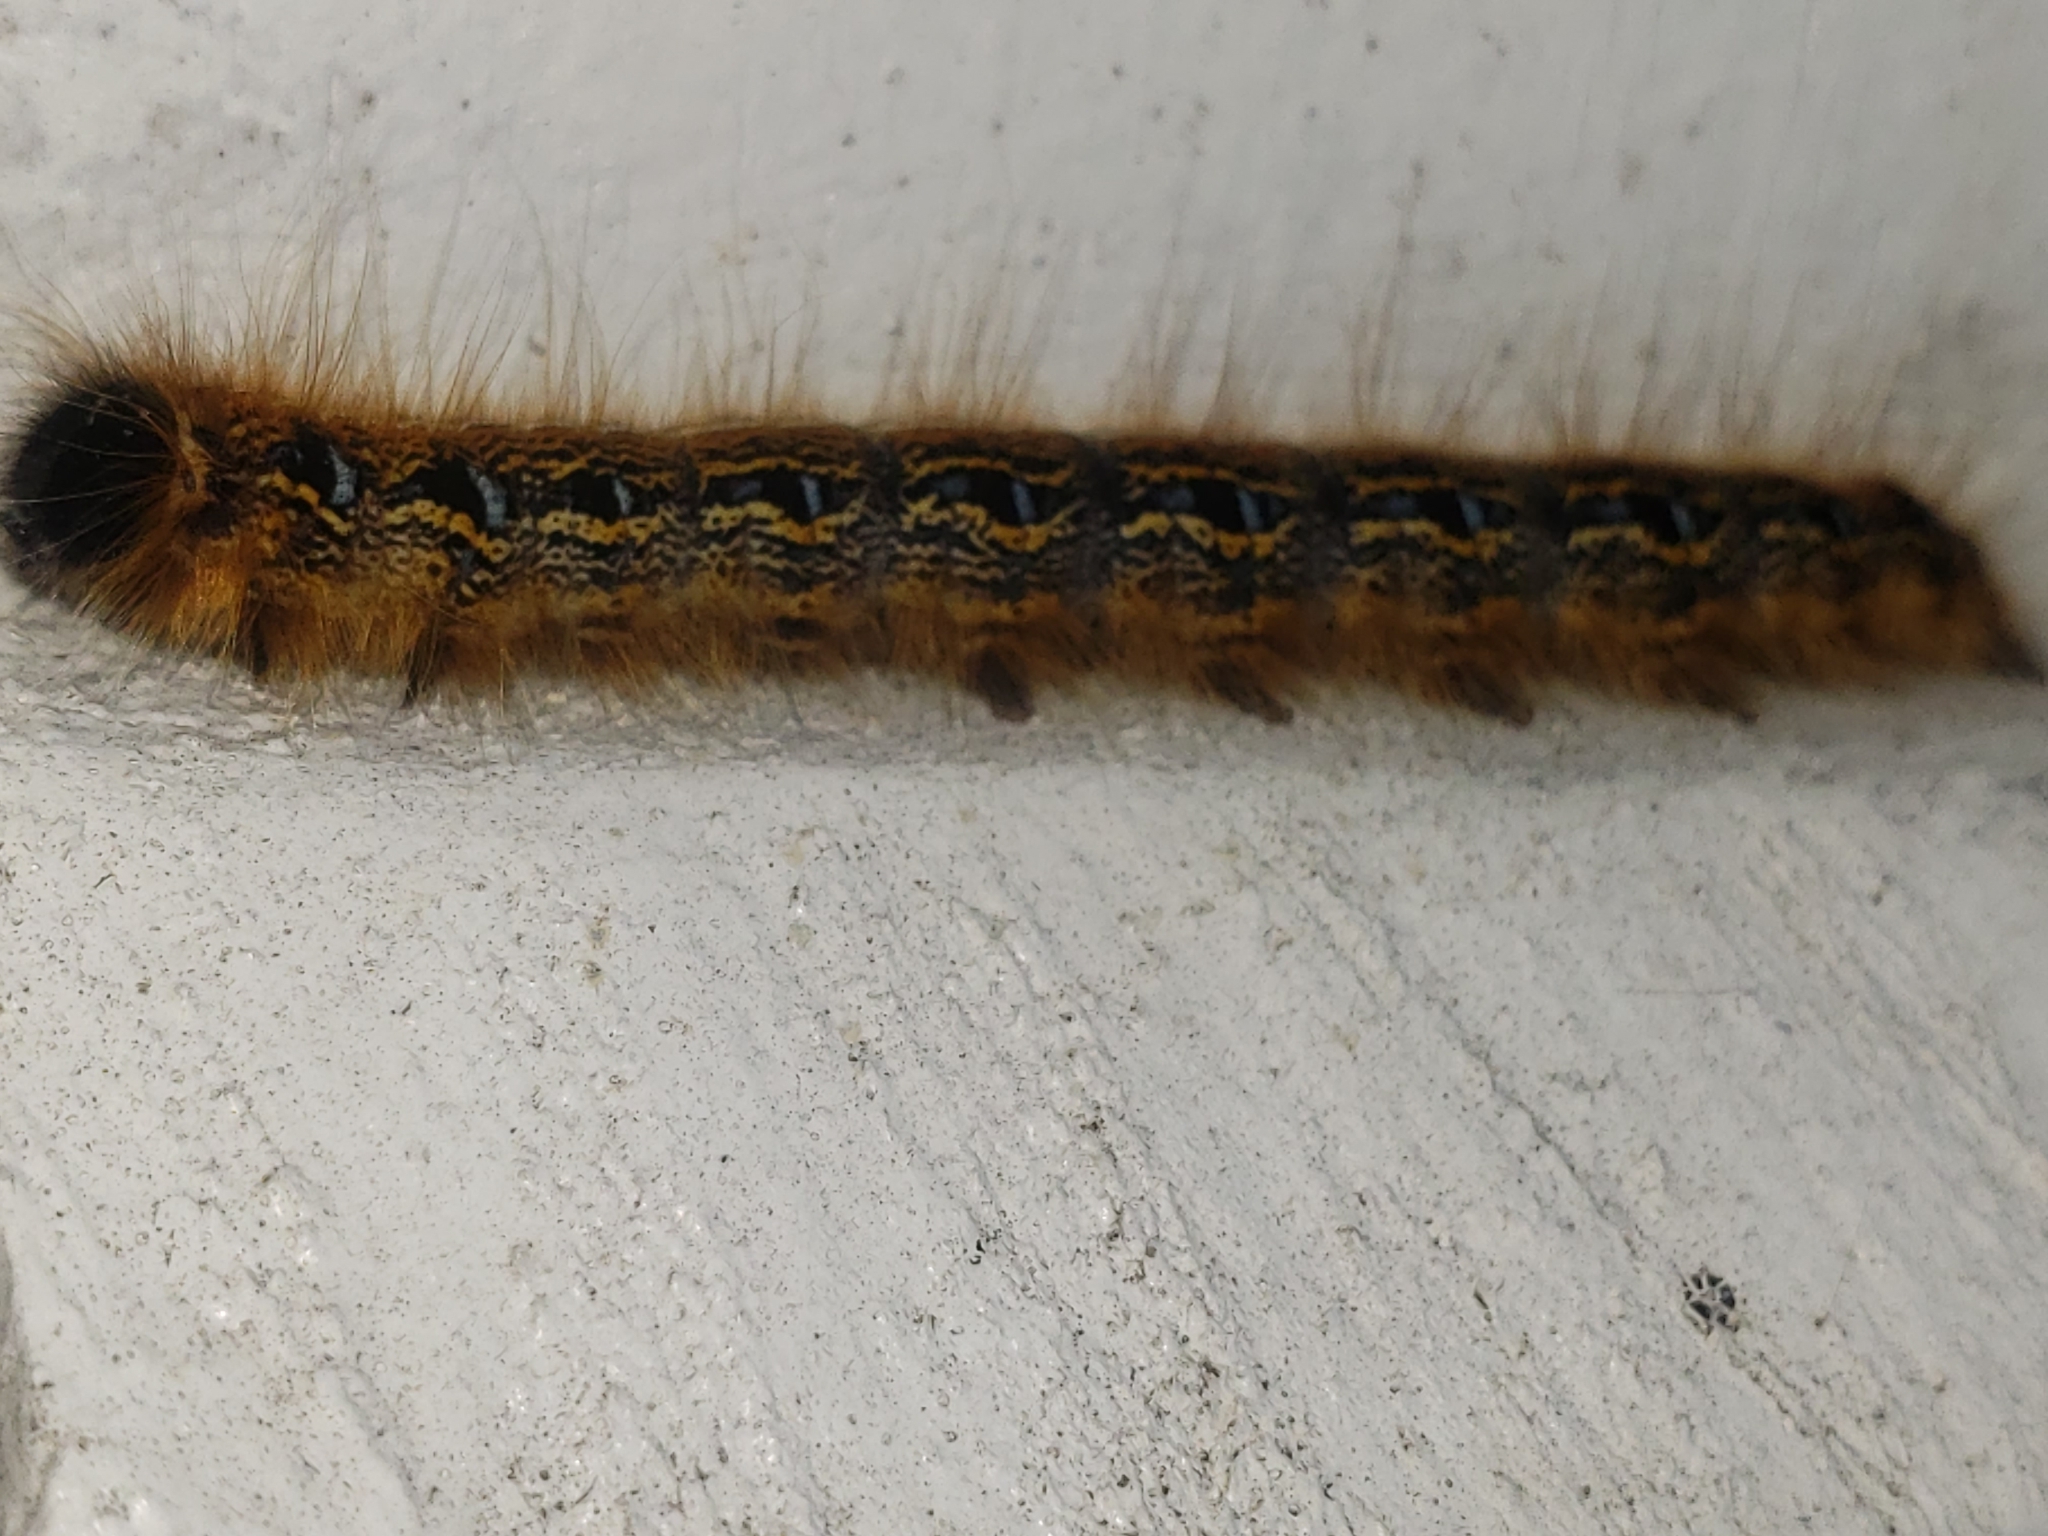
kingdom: Animalia
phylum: Arthropoda
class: Insecta
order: Lepidoptera
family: Lasiocampidae
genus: Malacosoma
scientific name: Malacosoma americana
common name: Eastern tent caterpillar moth
